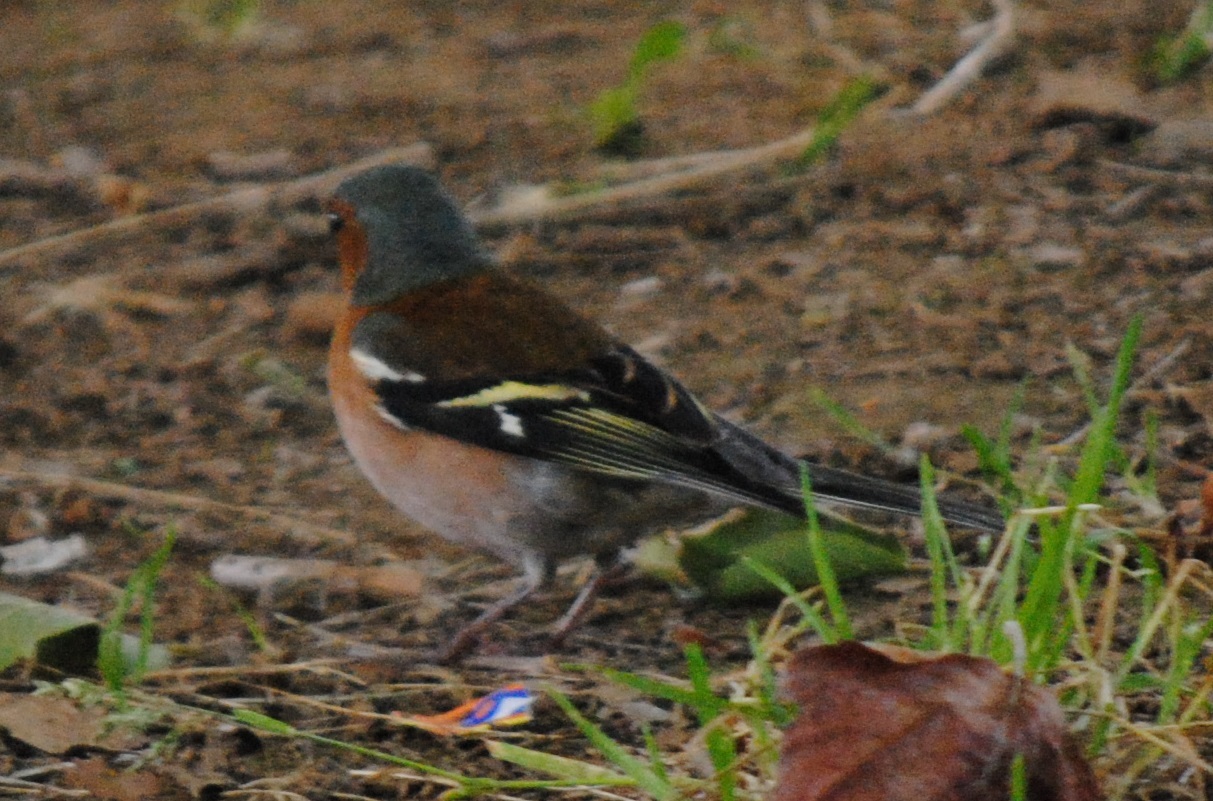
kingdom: Animalia
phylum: Chordata
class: Aves
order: Passeriformes
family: Fringillidae
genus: Fringilla
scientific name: Fringilla coelebs
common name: Common chaffinch
